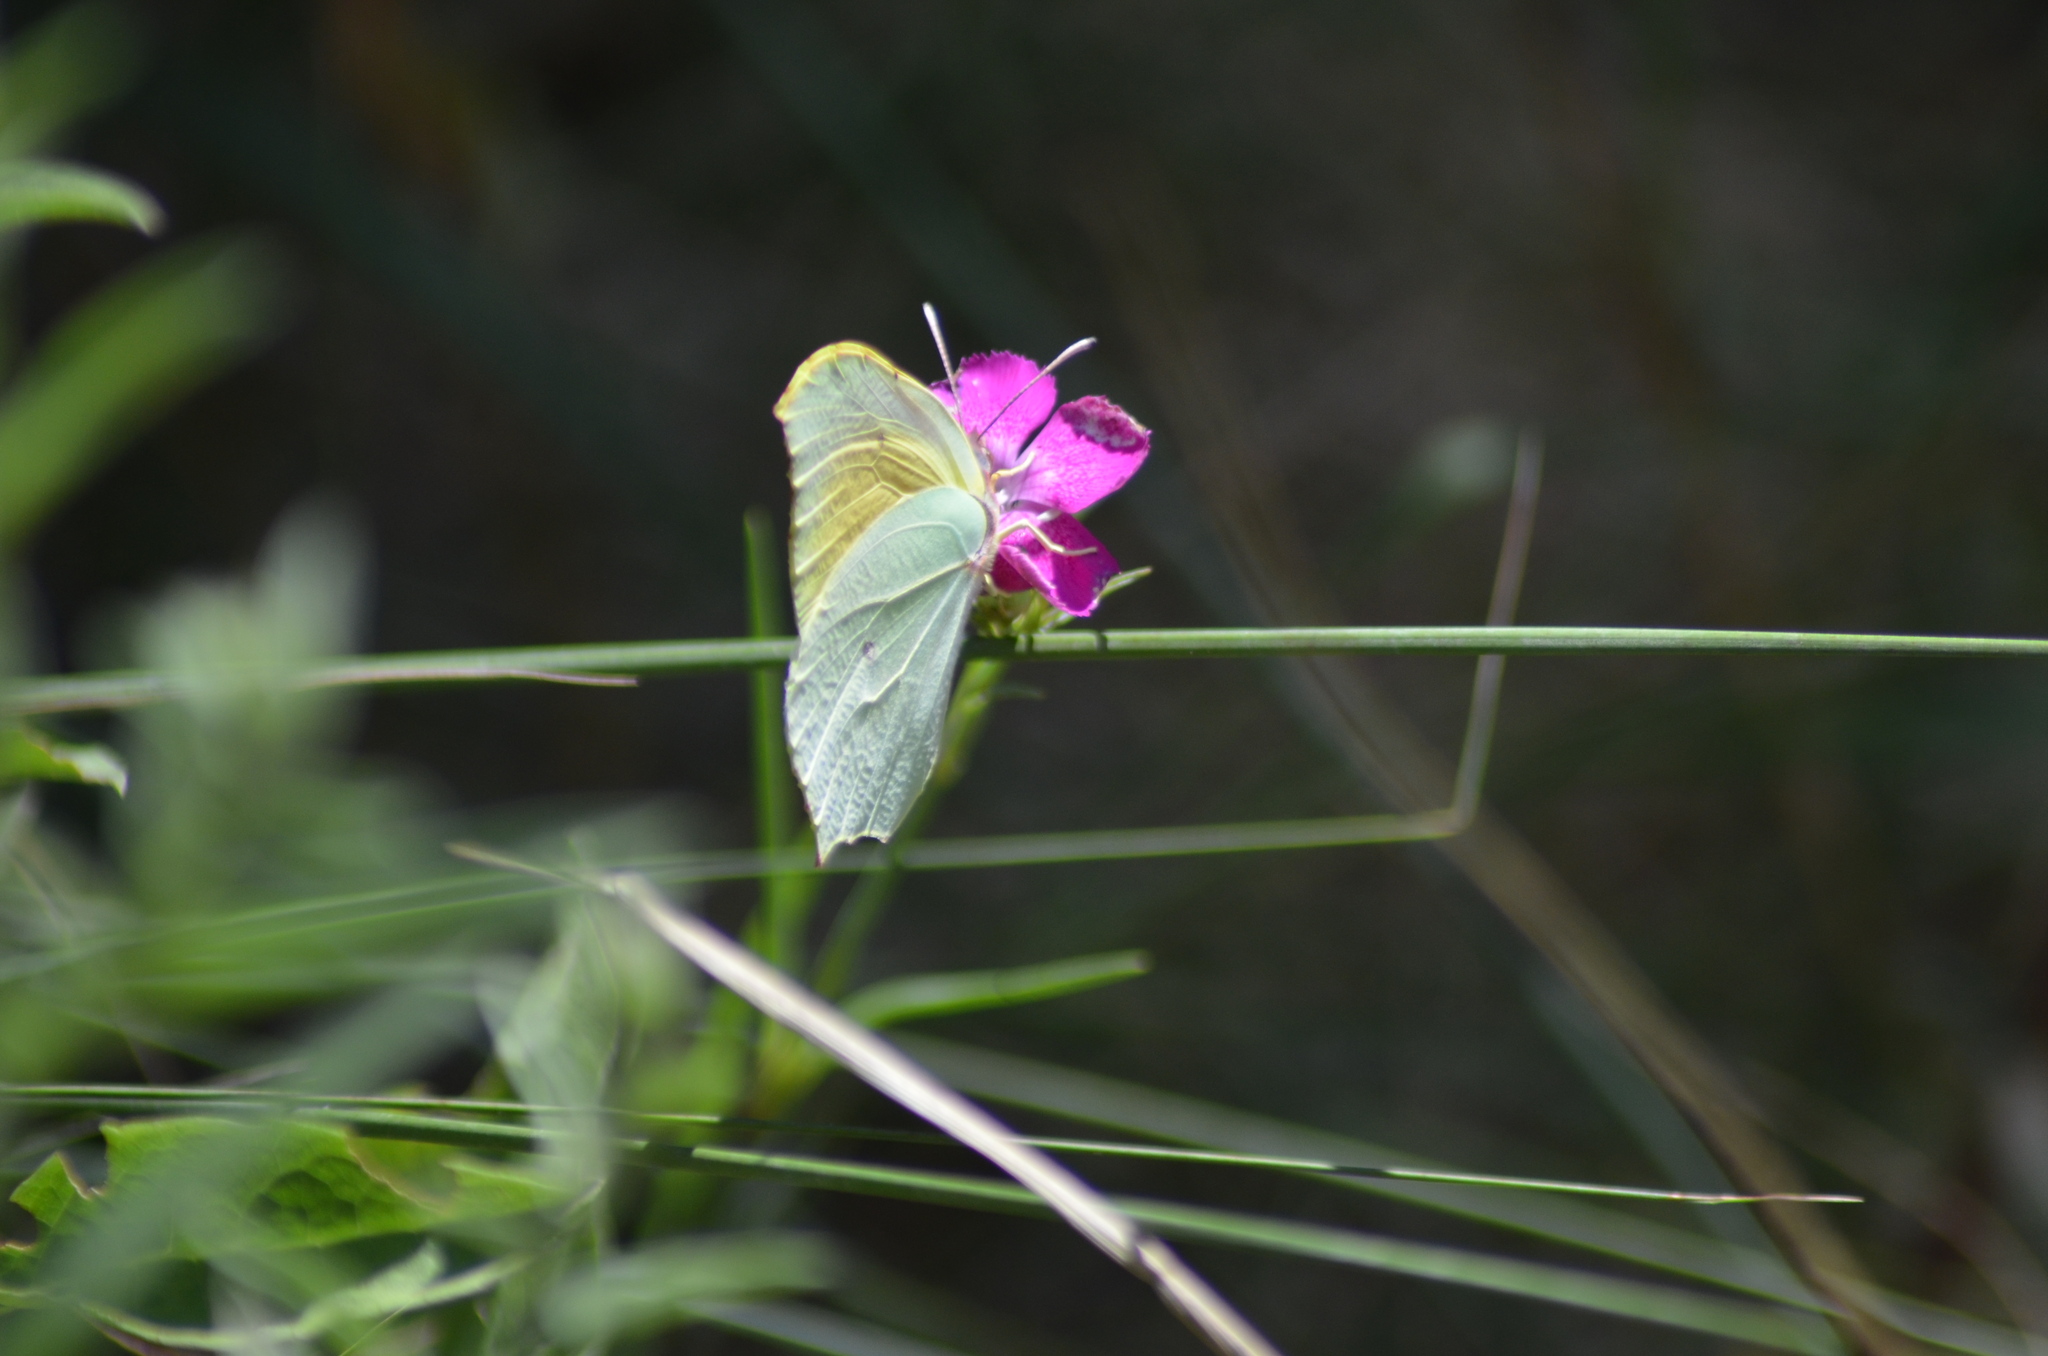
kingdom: Animalia
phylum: Arthropoda
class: Insecta
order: Lepidoptera
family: Pieridae
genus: Gonepteryx
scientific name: Gonepteryx cleopatra
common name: Cleopatra
